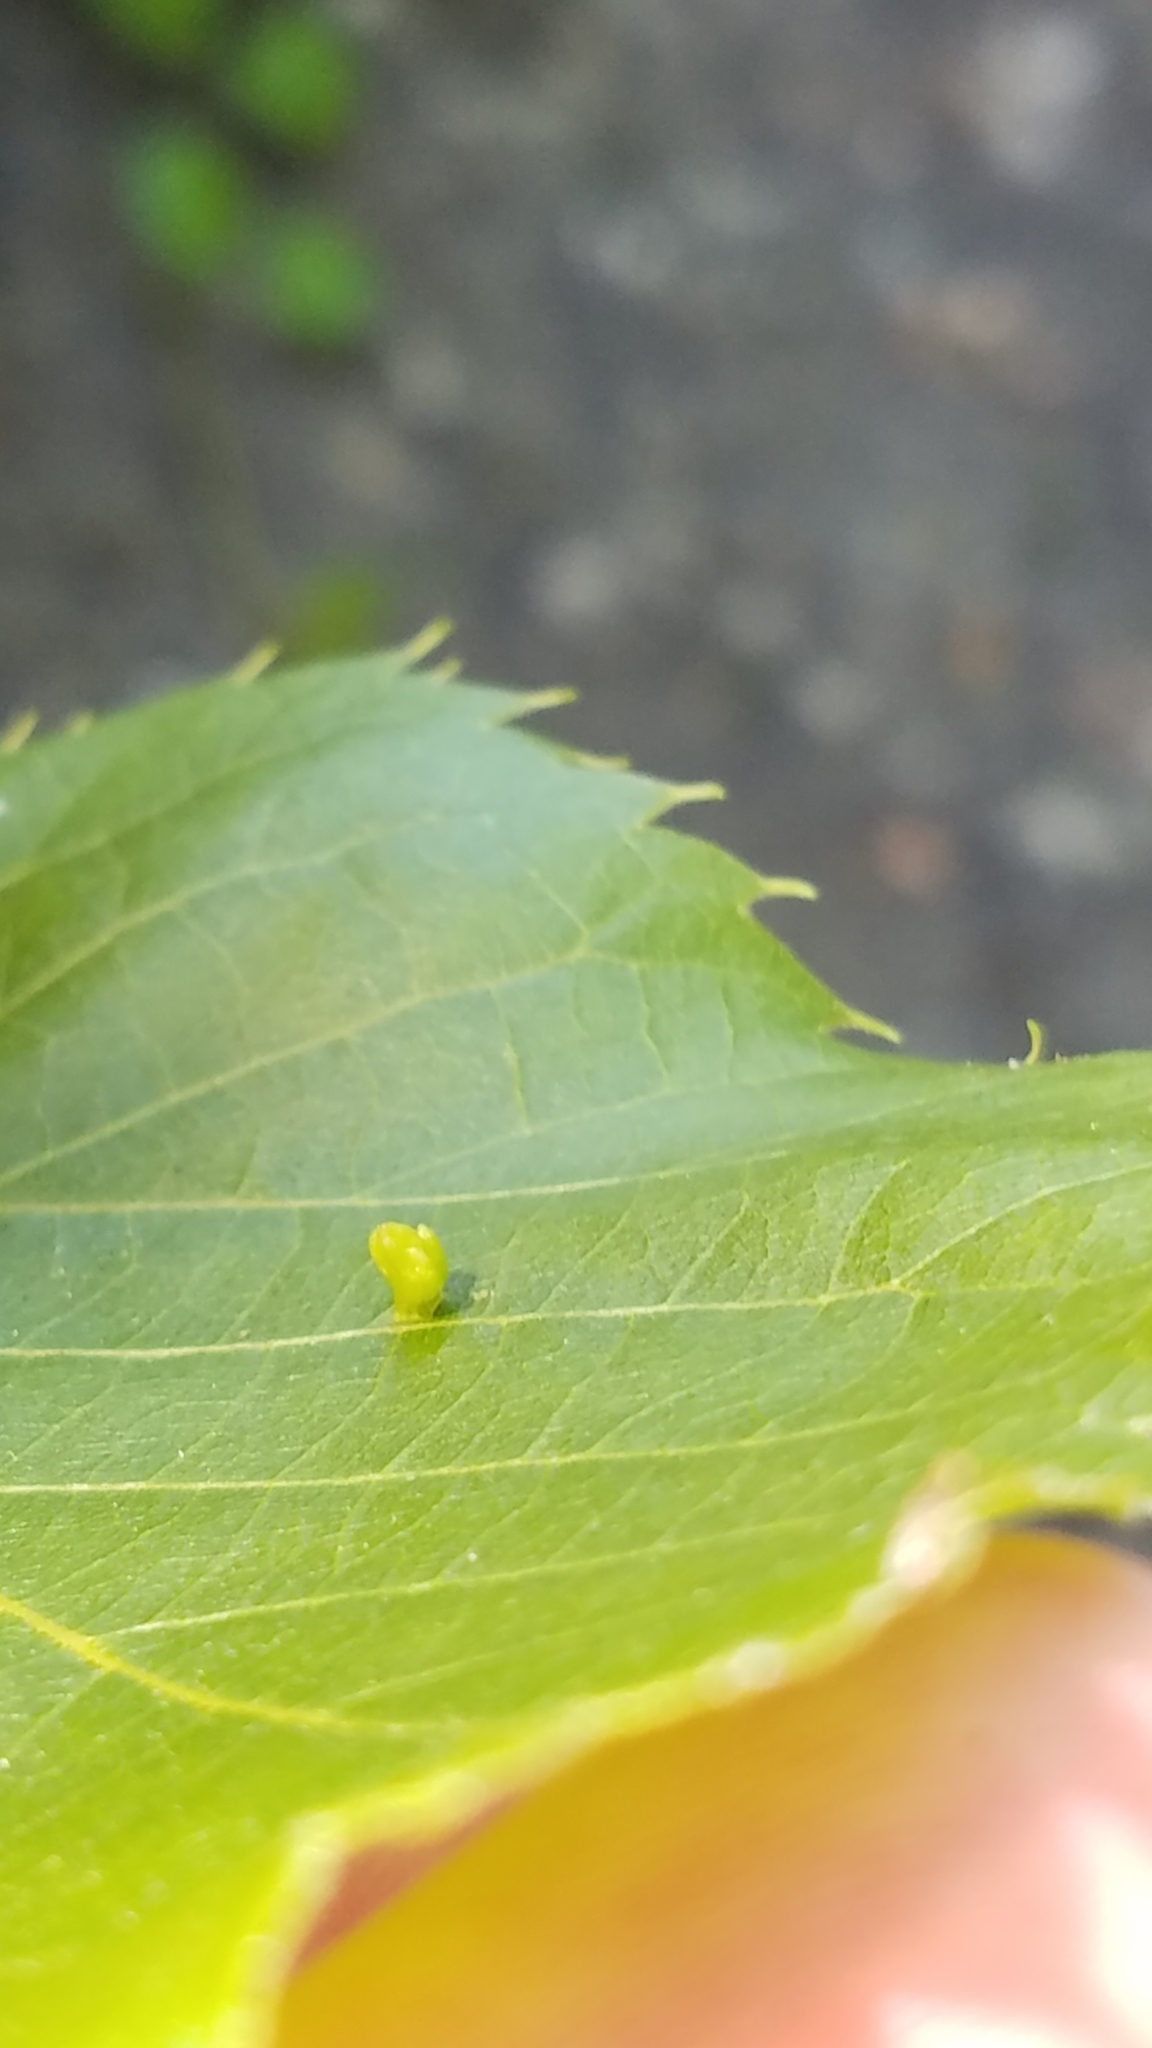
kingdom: Animalia
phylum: Arthropoda
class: Arachnida
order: Trombidiformes
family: Eriophyidae
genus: Aceria
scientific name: Aceria
